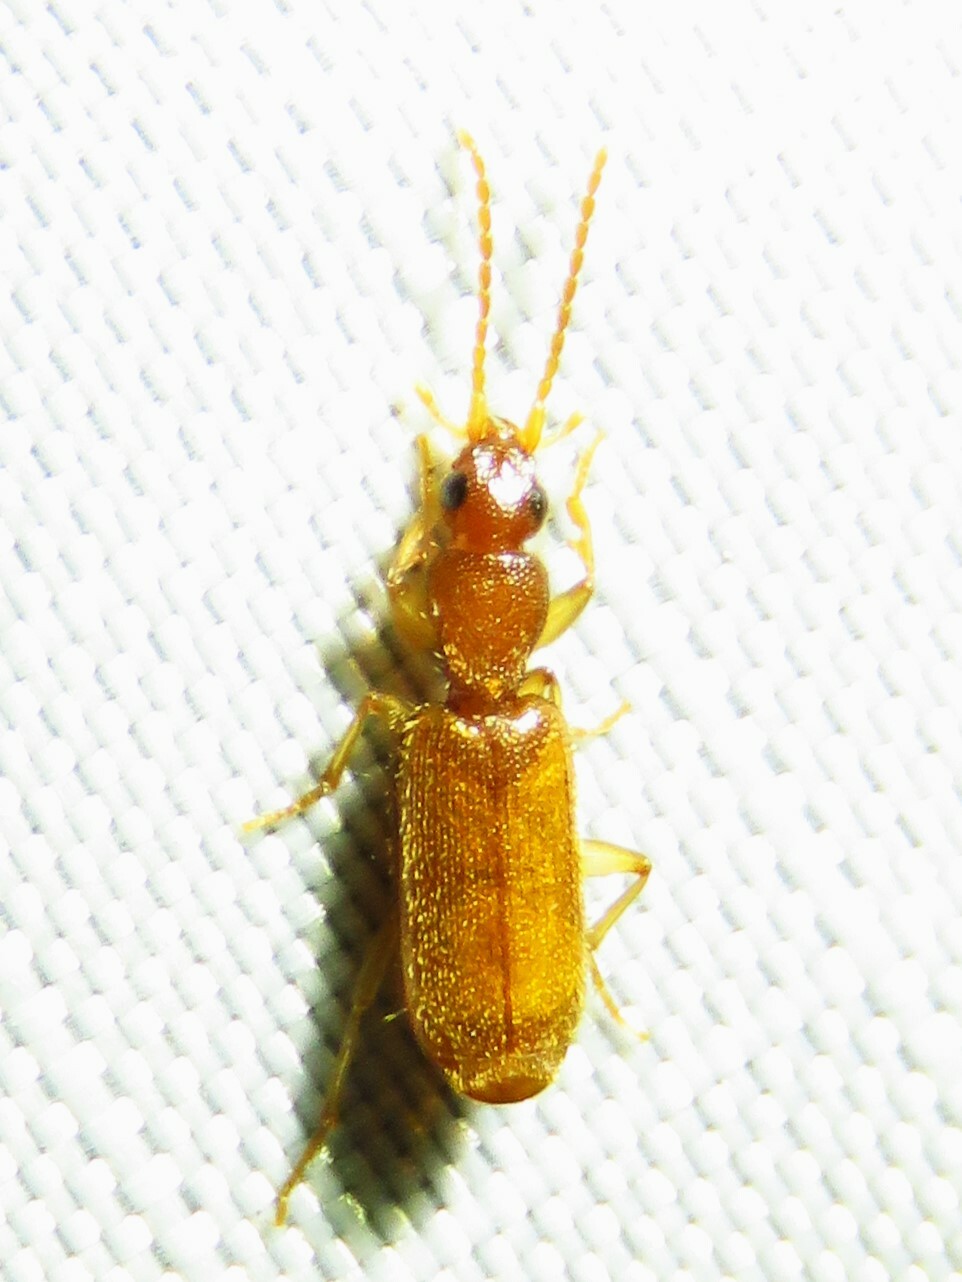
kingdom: Animalia
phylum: Arthropoda
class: Insecta
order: Coleoptera
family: Carabidae
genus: Pseudaptinus
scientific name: Pseudaptinus
